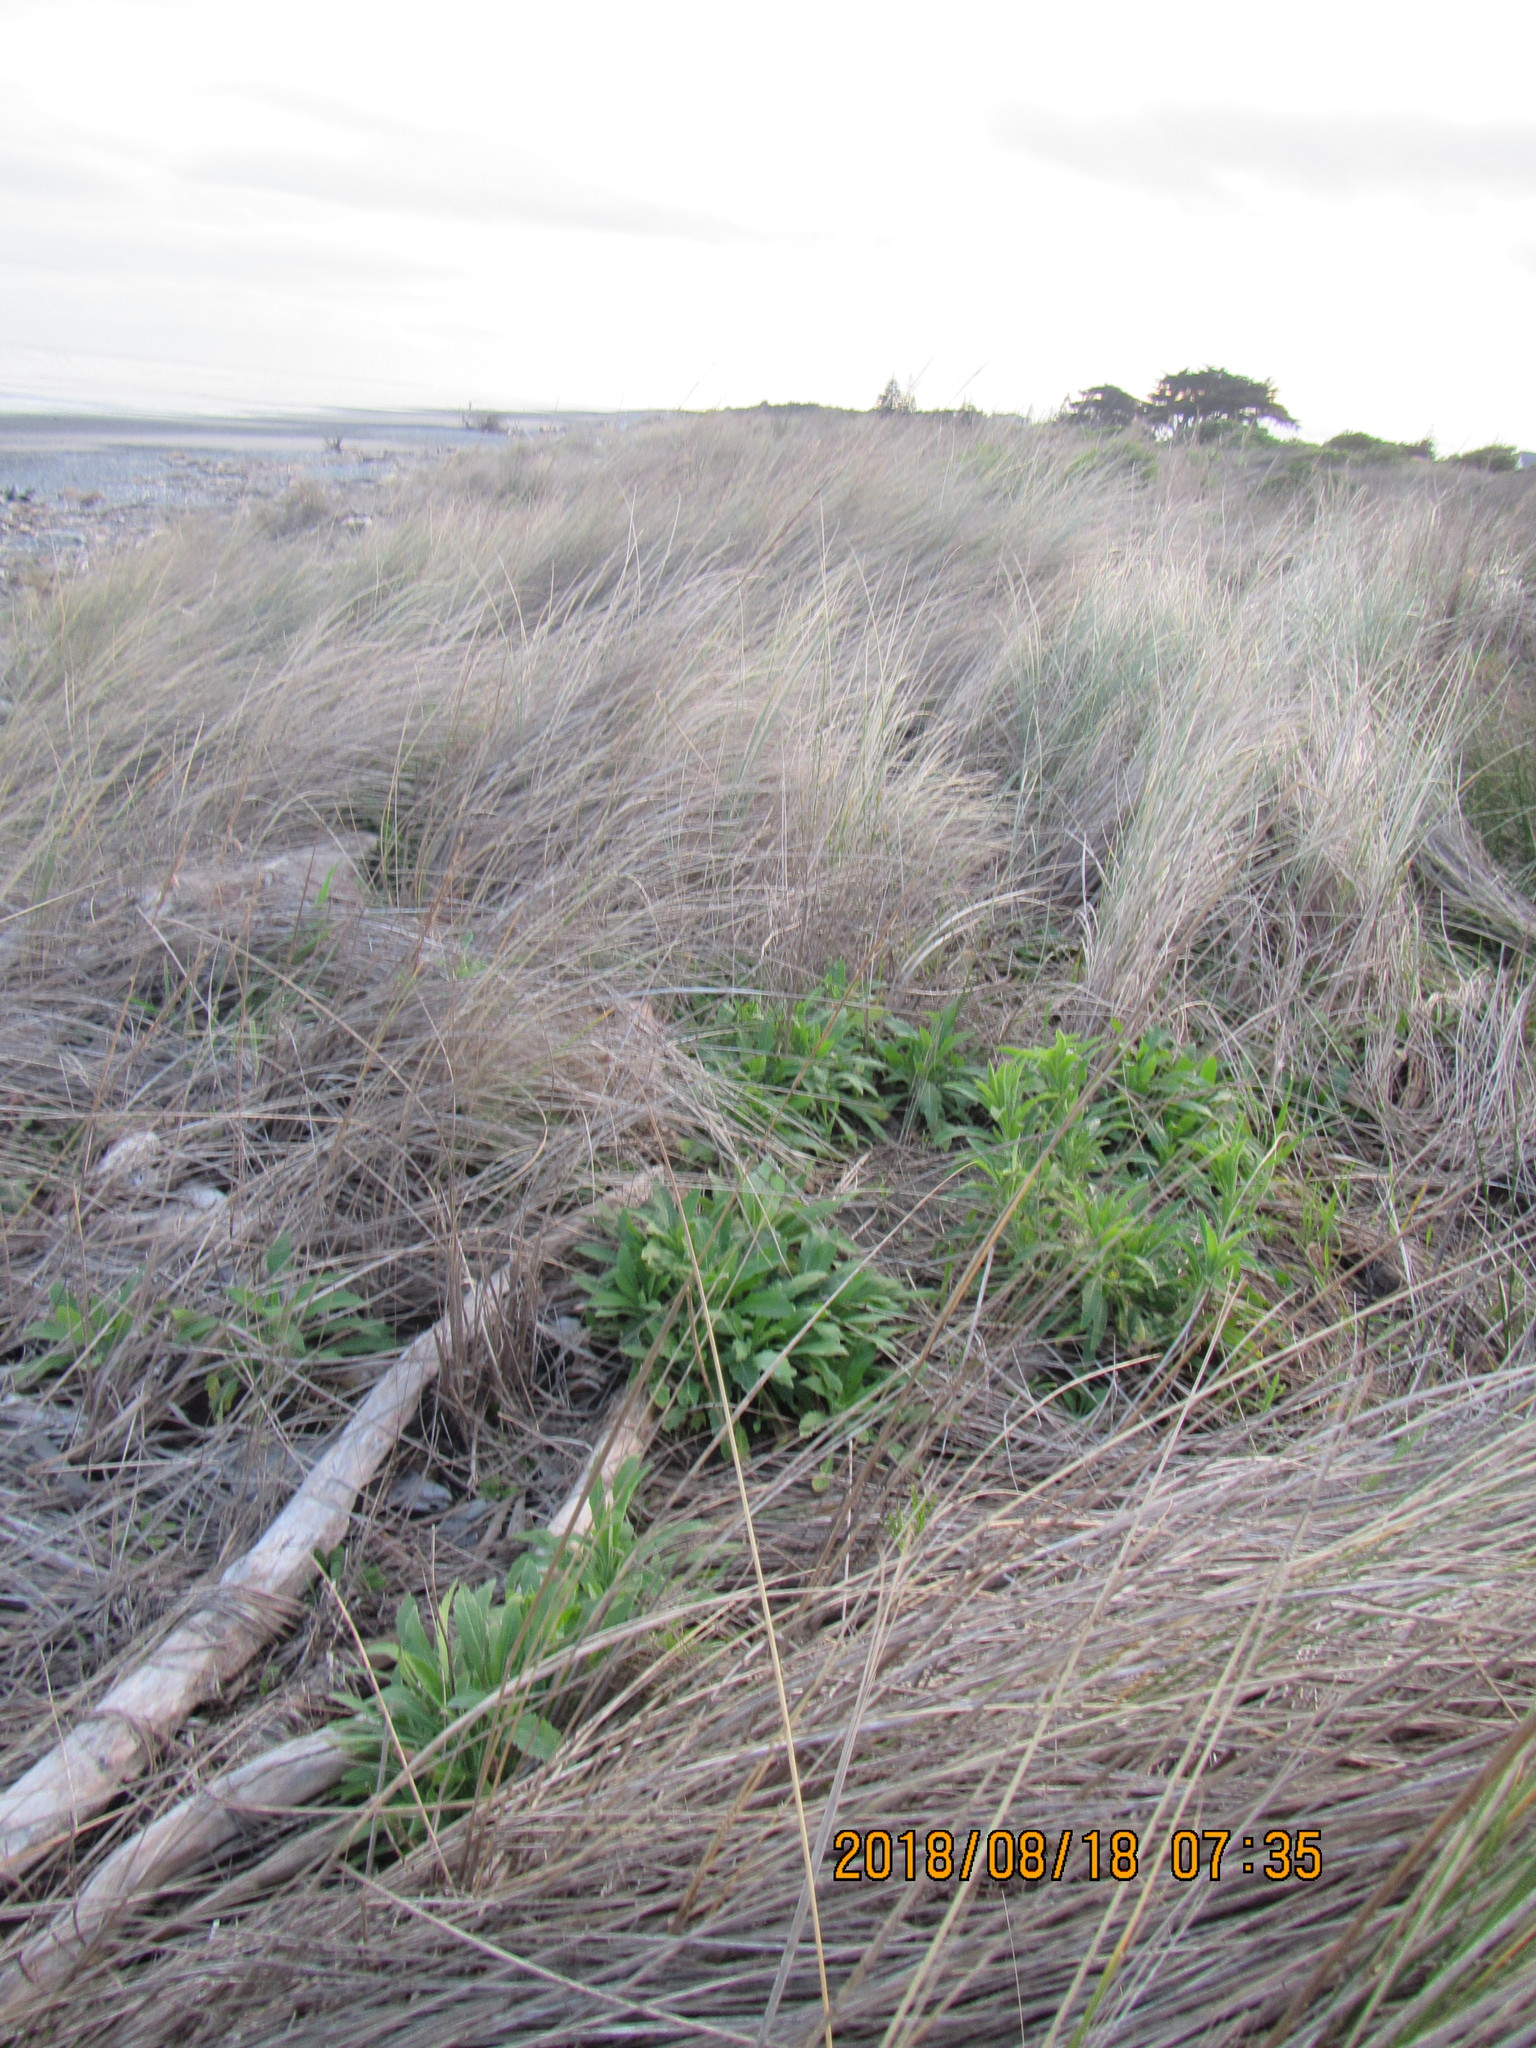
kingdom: Plantae
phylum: Tracheophyta
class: Magnoliopsida
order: Asterales
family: Asteraceae
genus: Erigeron
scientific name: Erigeron sumatrensis
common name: Daisy
